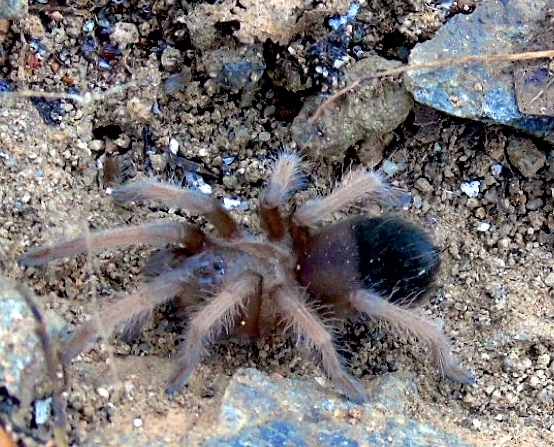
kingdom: Animalia
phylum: Arthropoda
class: Arachnida
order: Araneae
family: Theraphosidae
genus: Brachypelma
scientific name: Brachypelma emilia
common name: Mexican redleg
